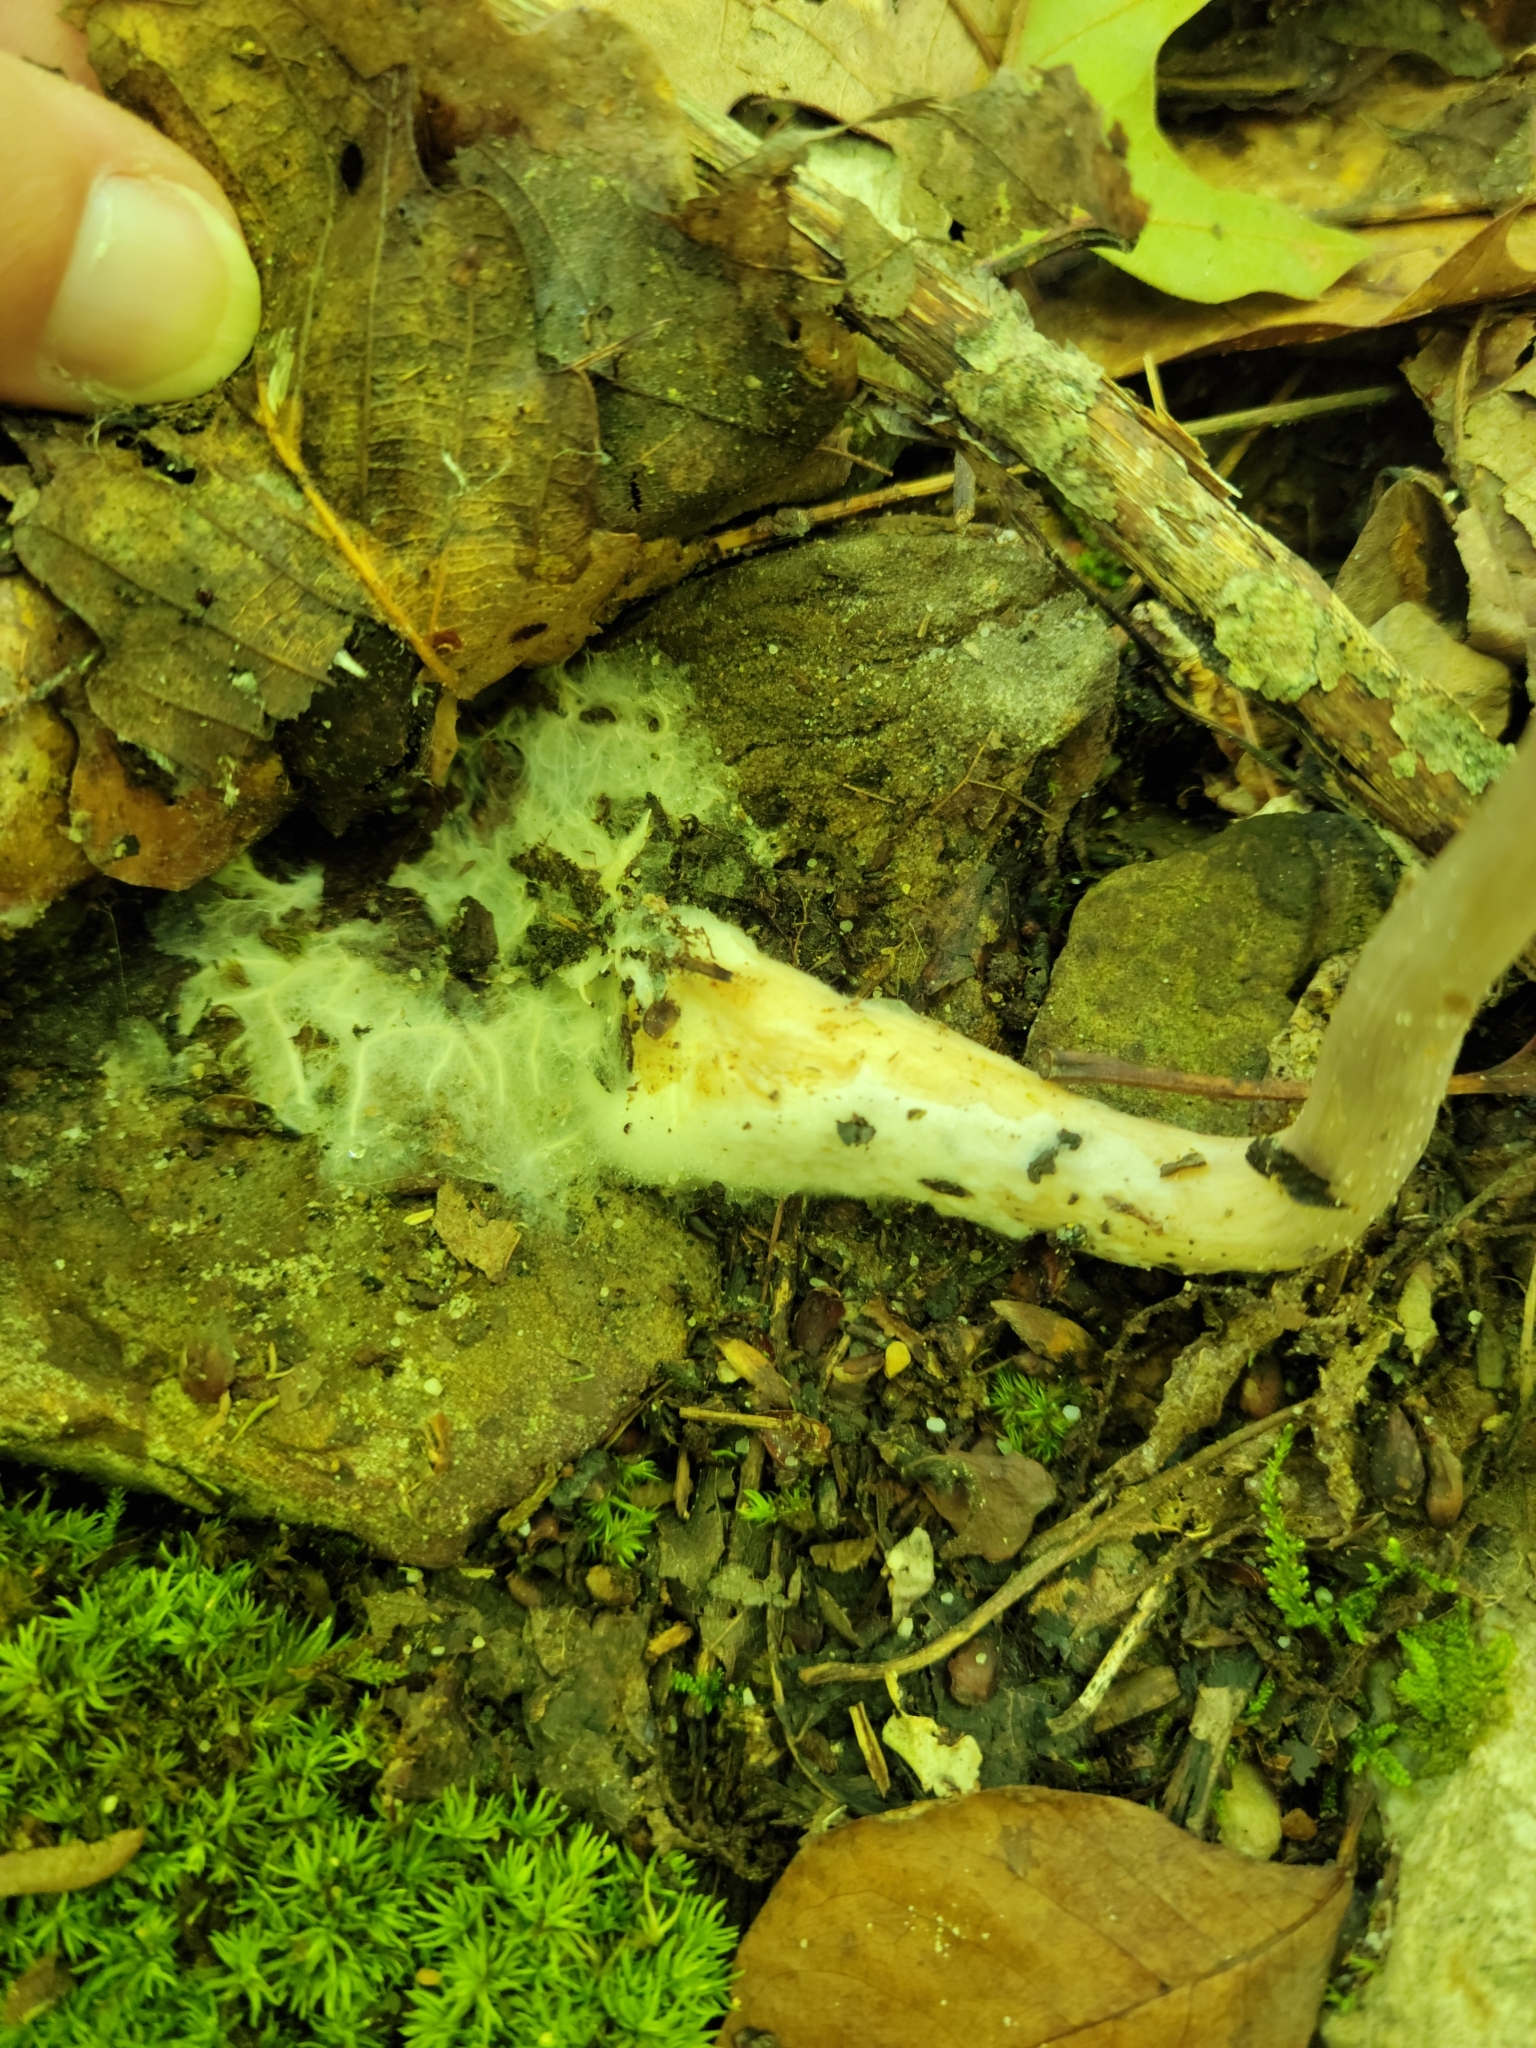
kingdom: Fungi
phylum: Basidiomycota
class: Agaricomycetes
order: Agaricales
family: Cortinariaceae
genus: Cortinarius
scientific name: Cortinarius iodes
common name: Viscid violet cort
